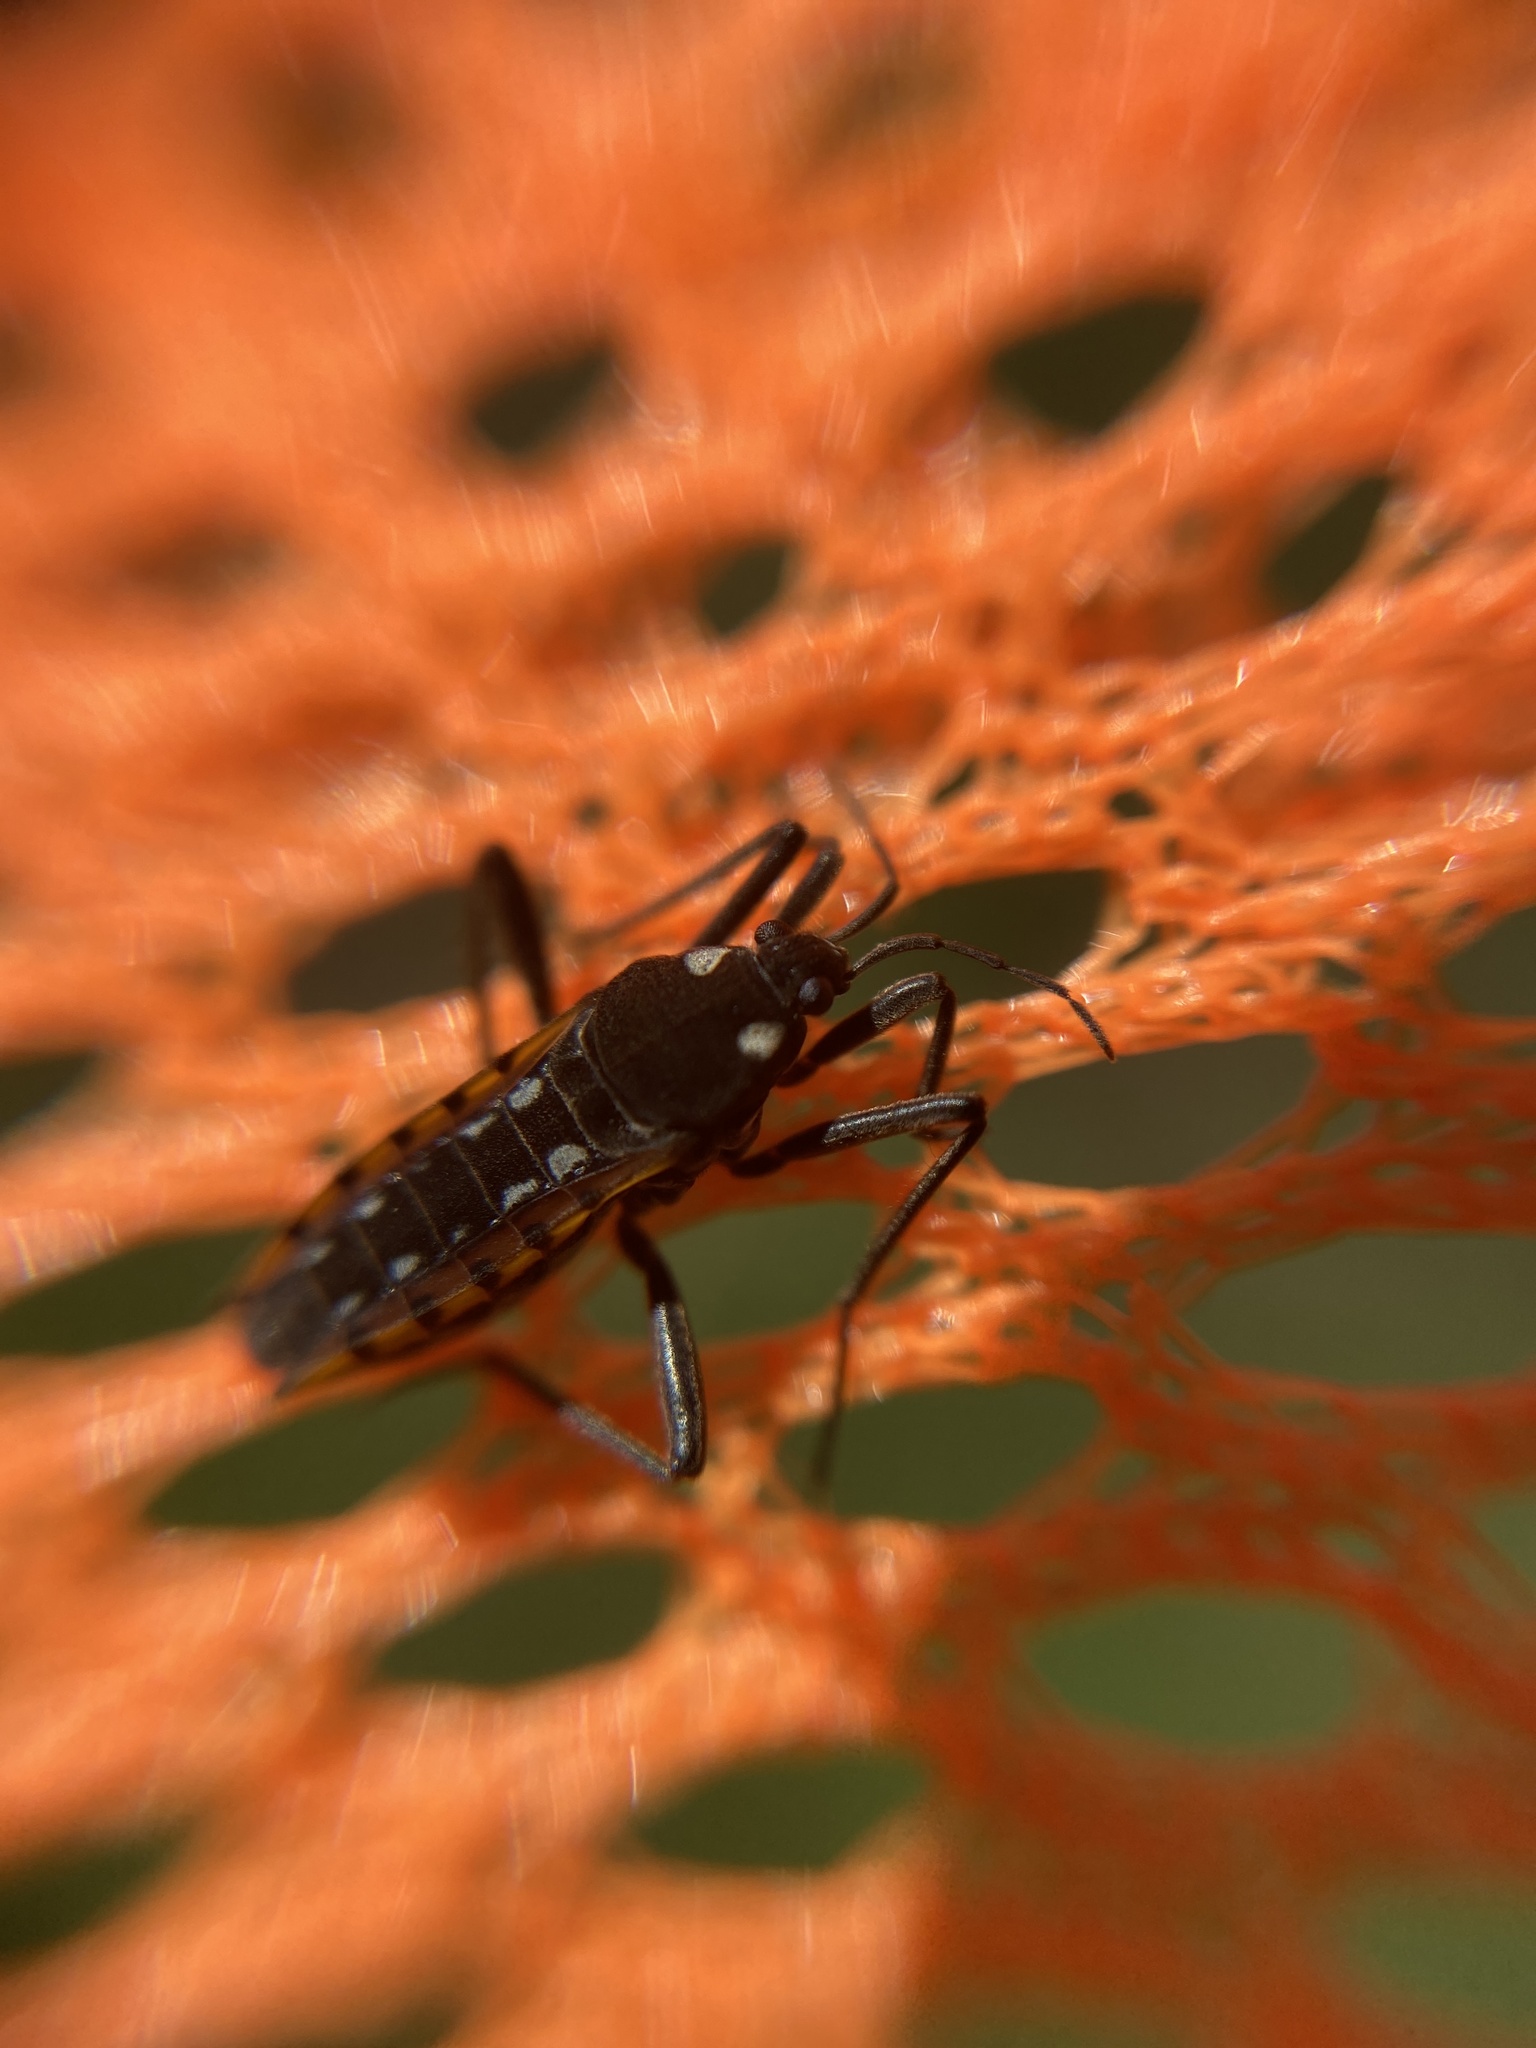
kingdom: Animalia
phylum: Arthropoda
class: Insecta
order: Hemiptera
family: Veliidae
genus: Velia
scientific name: Velia caprai
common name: Water cricket
